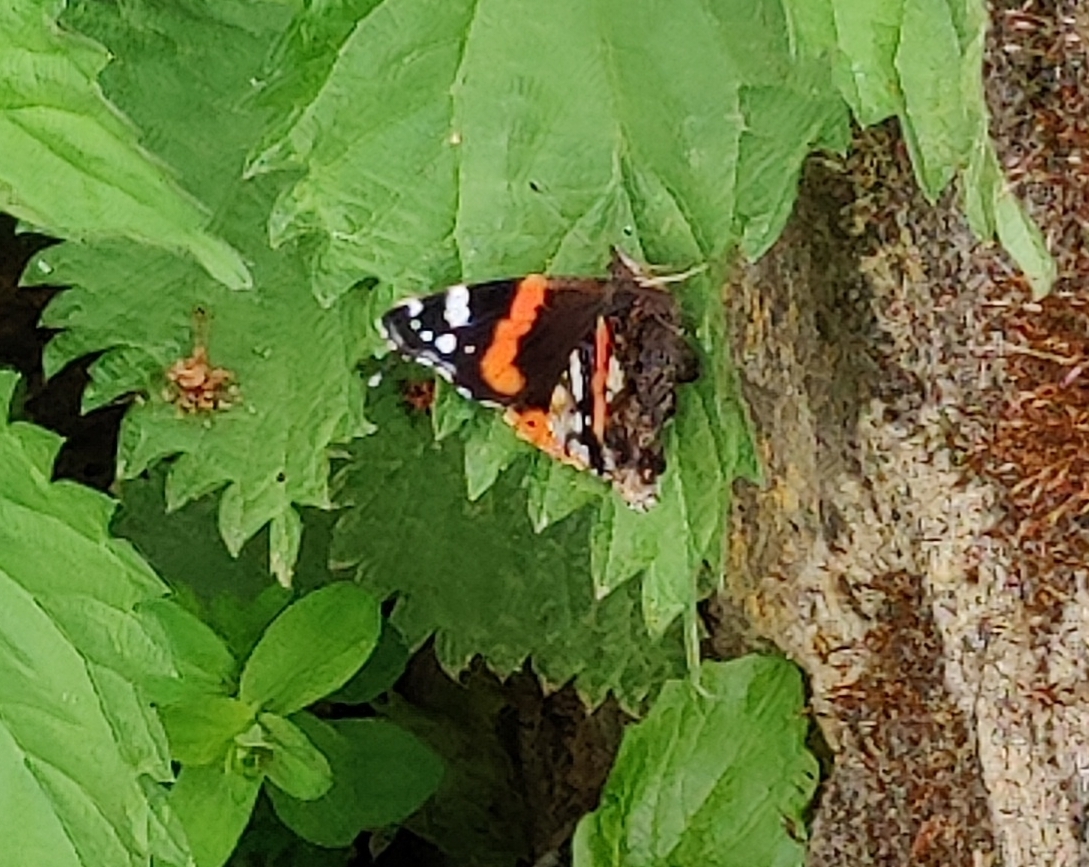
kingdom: Animalia
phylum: Arthropoda
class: Insecta
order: Lepidoptera
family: Nymphalidae
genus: Vanessa
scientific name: Vanessa atalanta
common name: Red admiral
